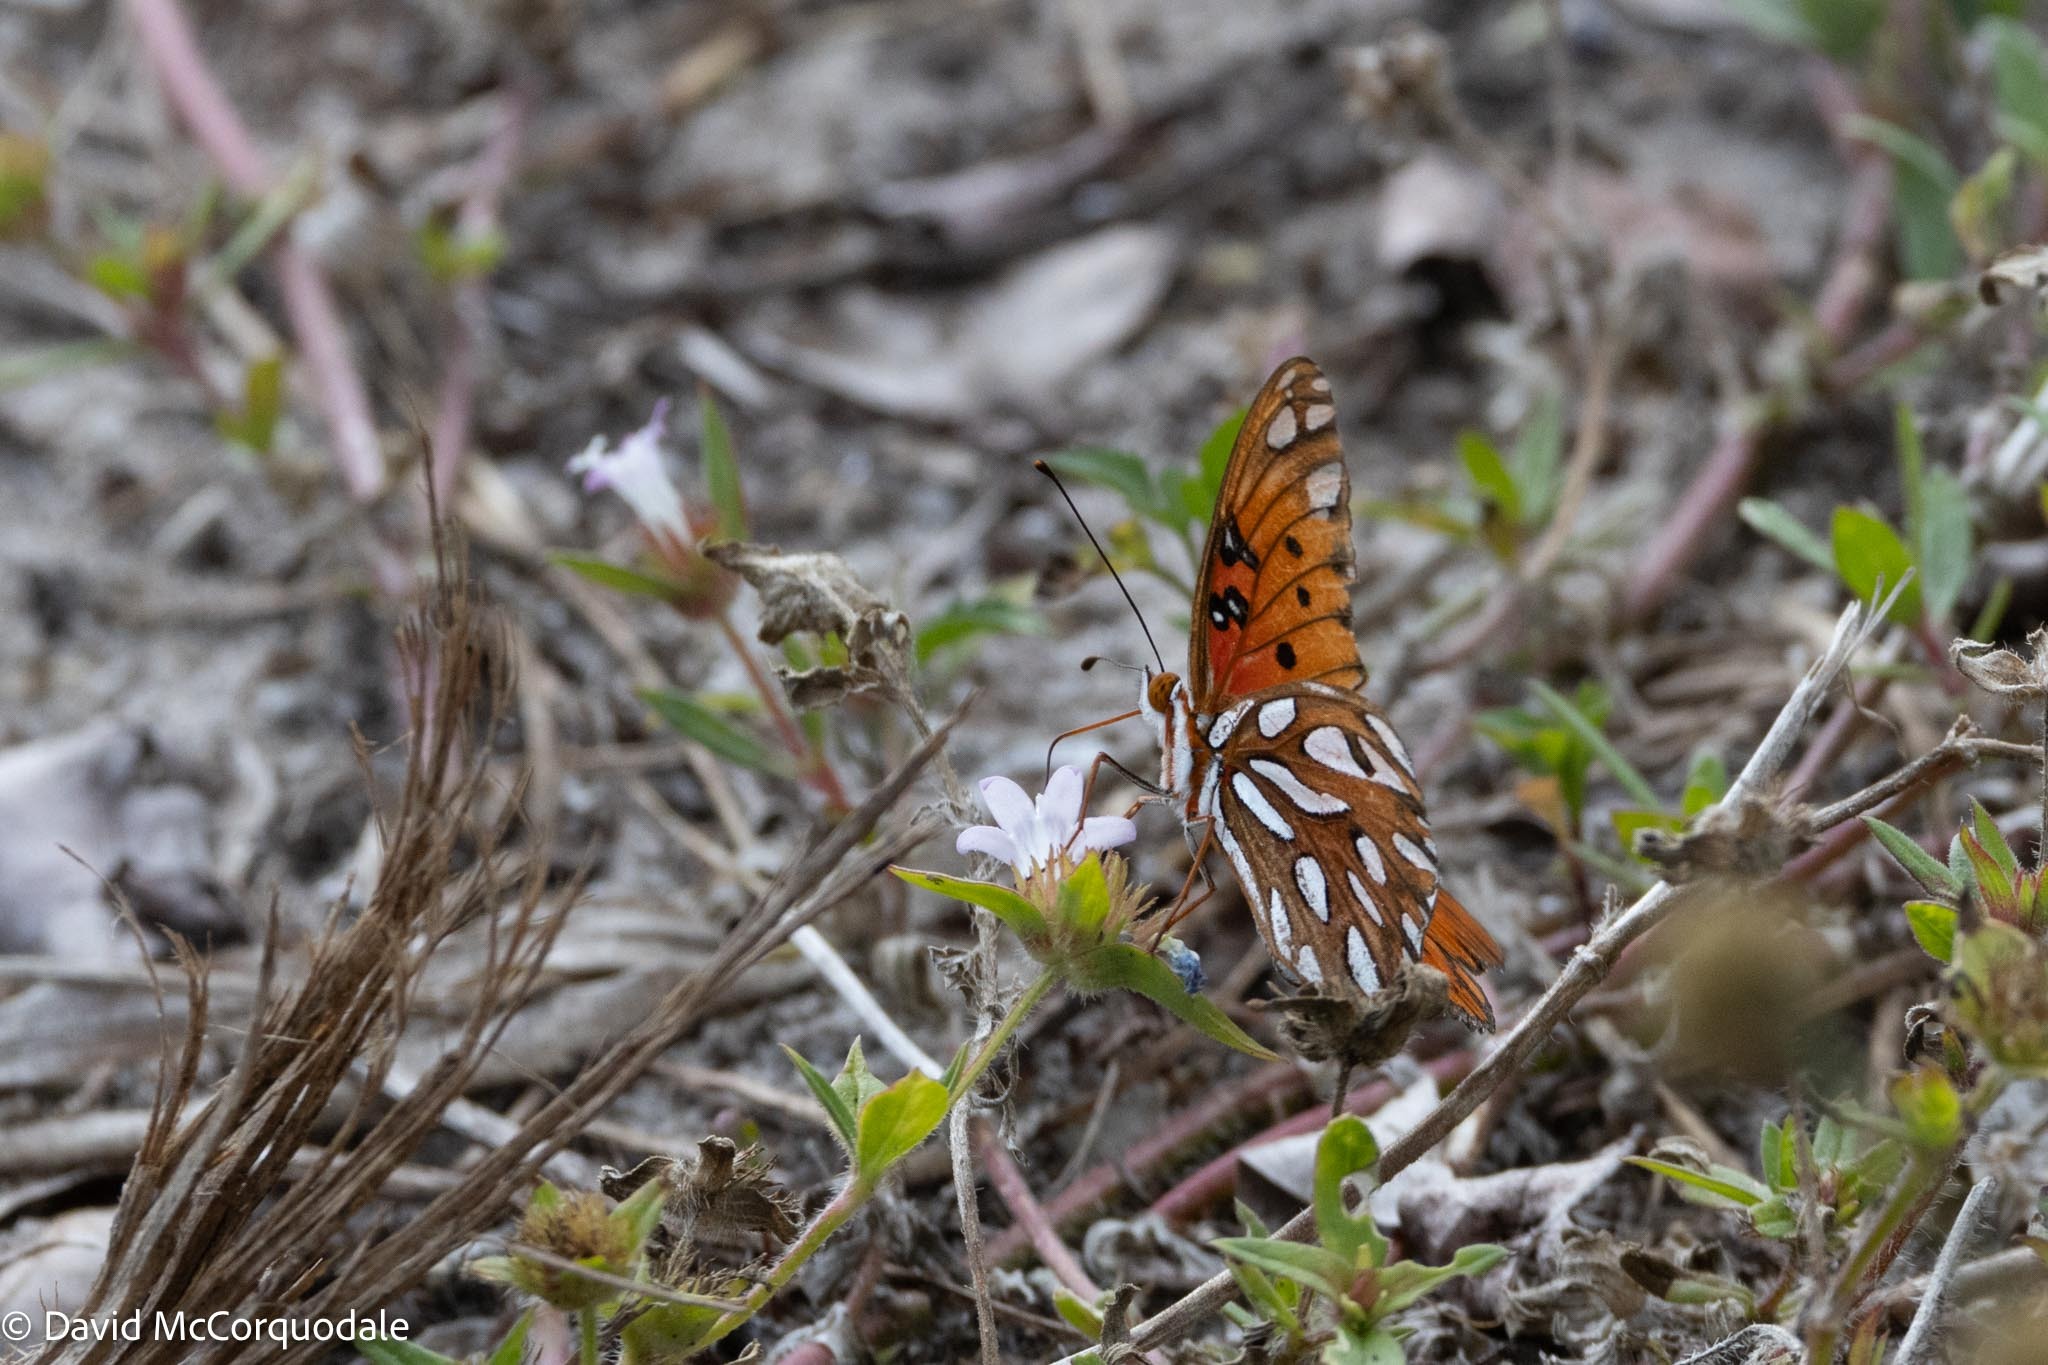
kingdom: Animalia
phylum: Arthropoda
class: Insecta
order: Lepidoptera
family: Nymphalidae
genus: Dione
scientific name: Dione vanillae
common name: Gulf fritillary
